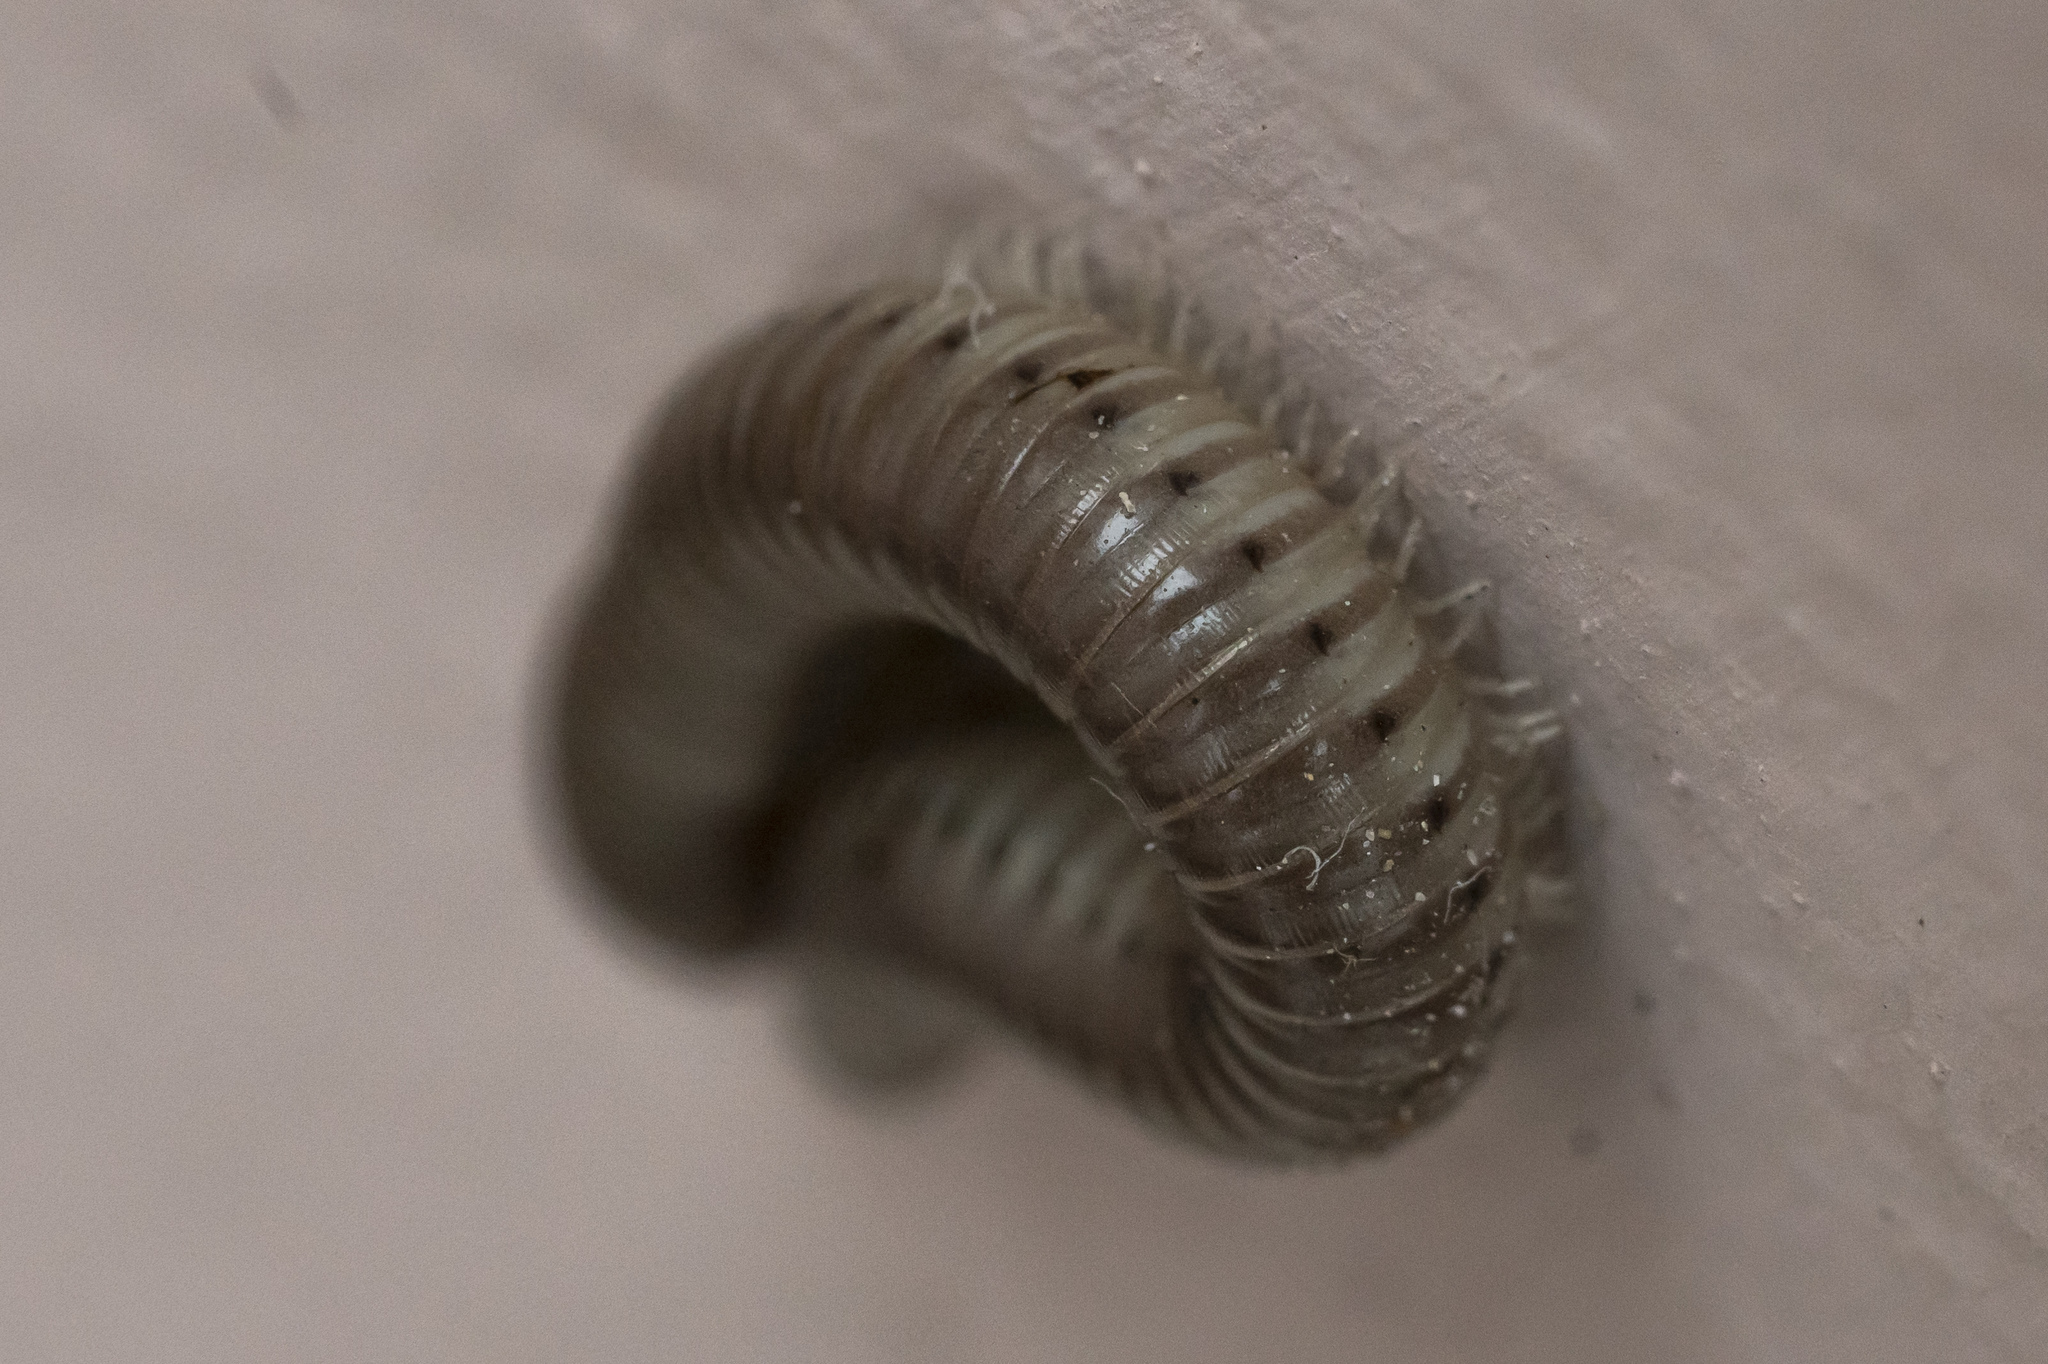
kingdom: Animalia
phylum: Arthropoda
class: Diplopoda
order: Julida
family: Julidae
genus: Pachyiulus
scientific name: Pachyiulus flavipes
